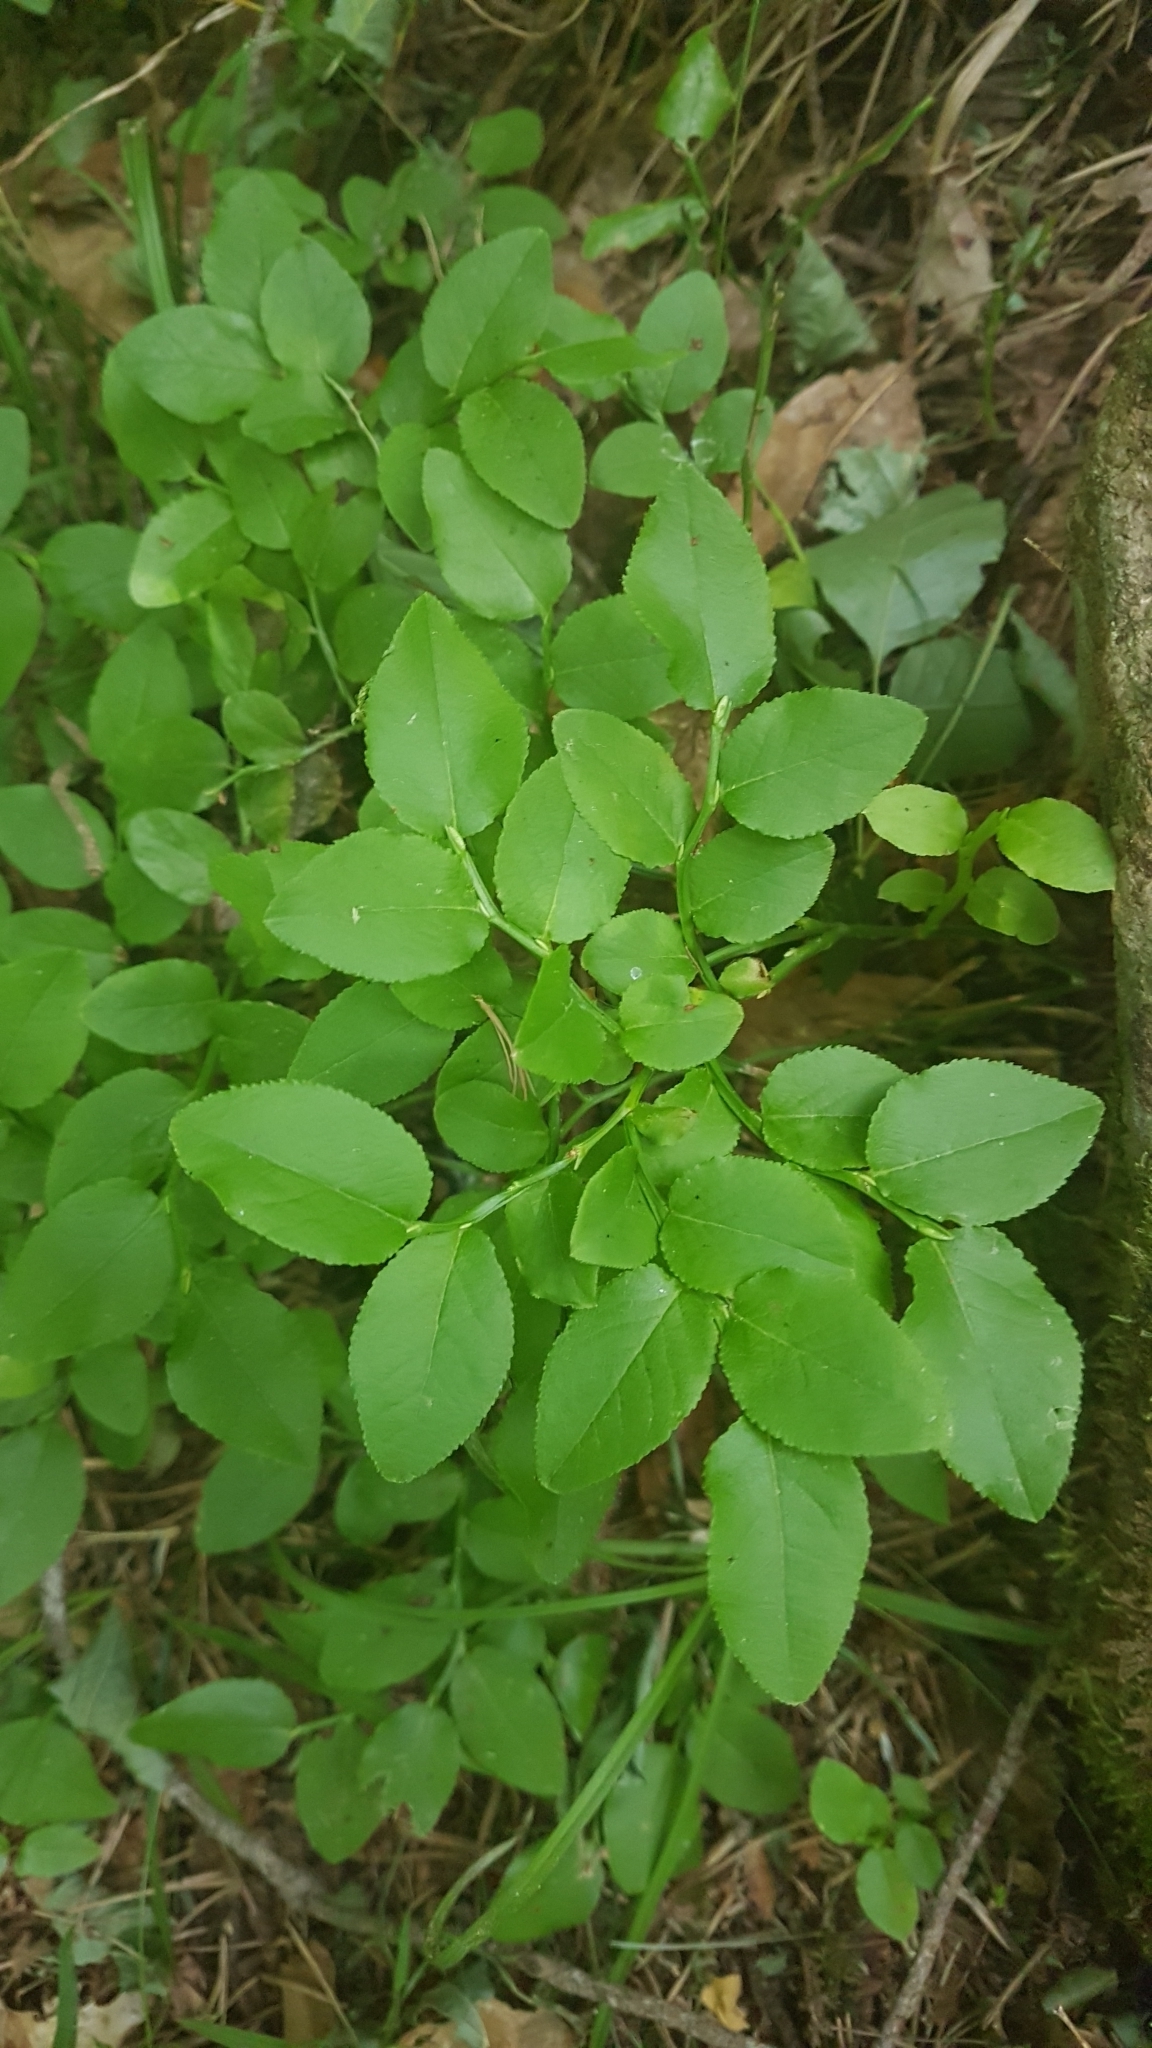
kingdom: Plantae
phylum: Tracheophyta
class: Magnoliopsida
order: Ericales
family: Ericaceae
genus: Vaccinium
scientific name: Vaccinium myrtillus
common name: Bilberry
